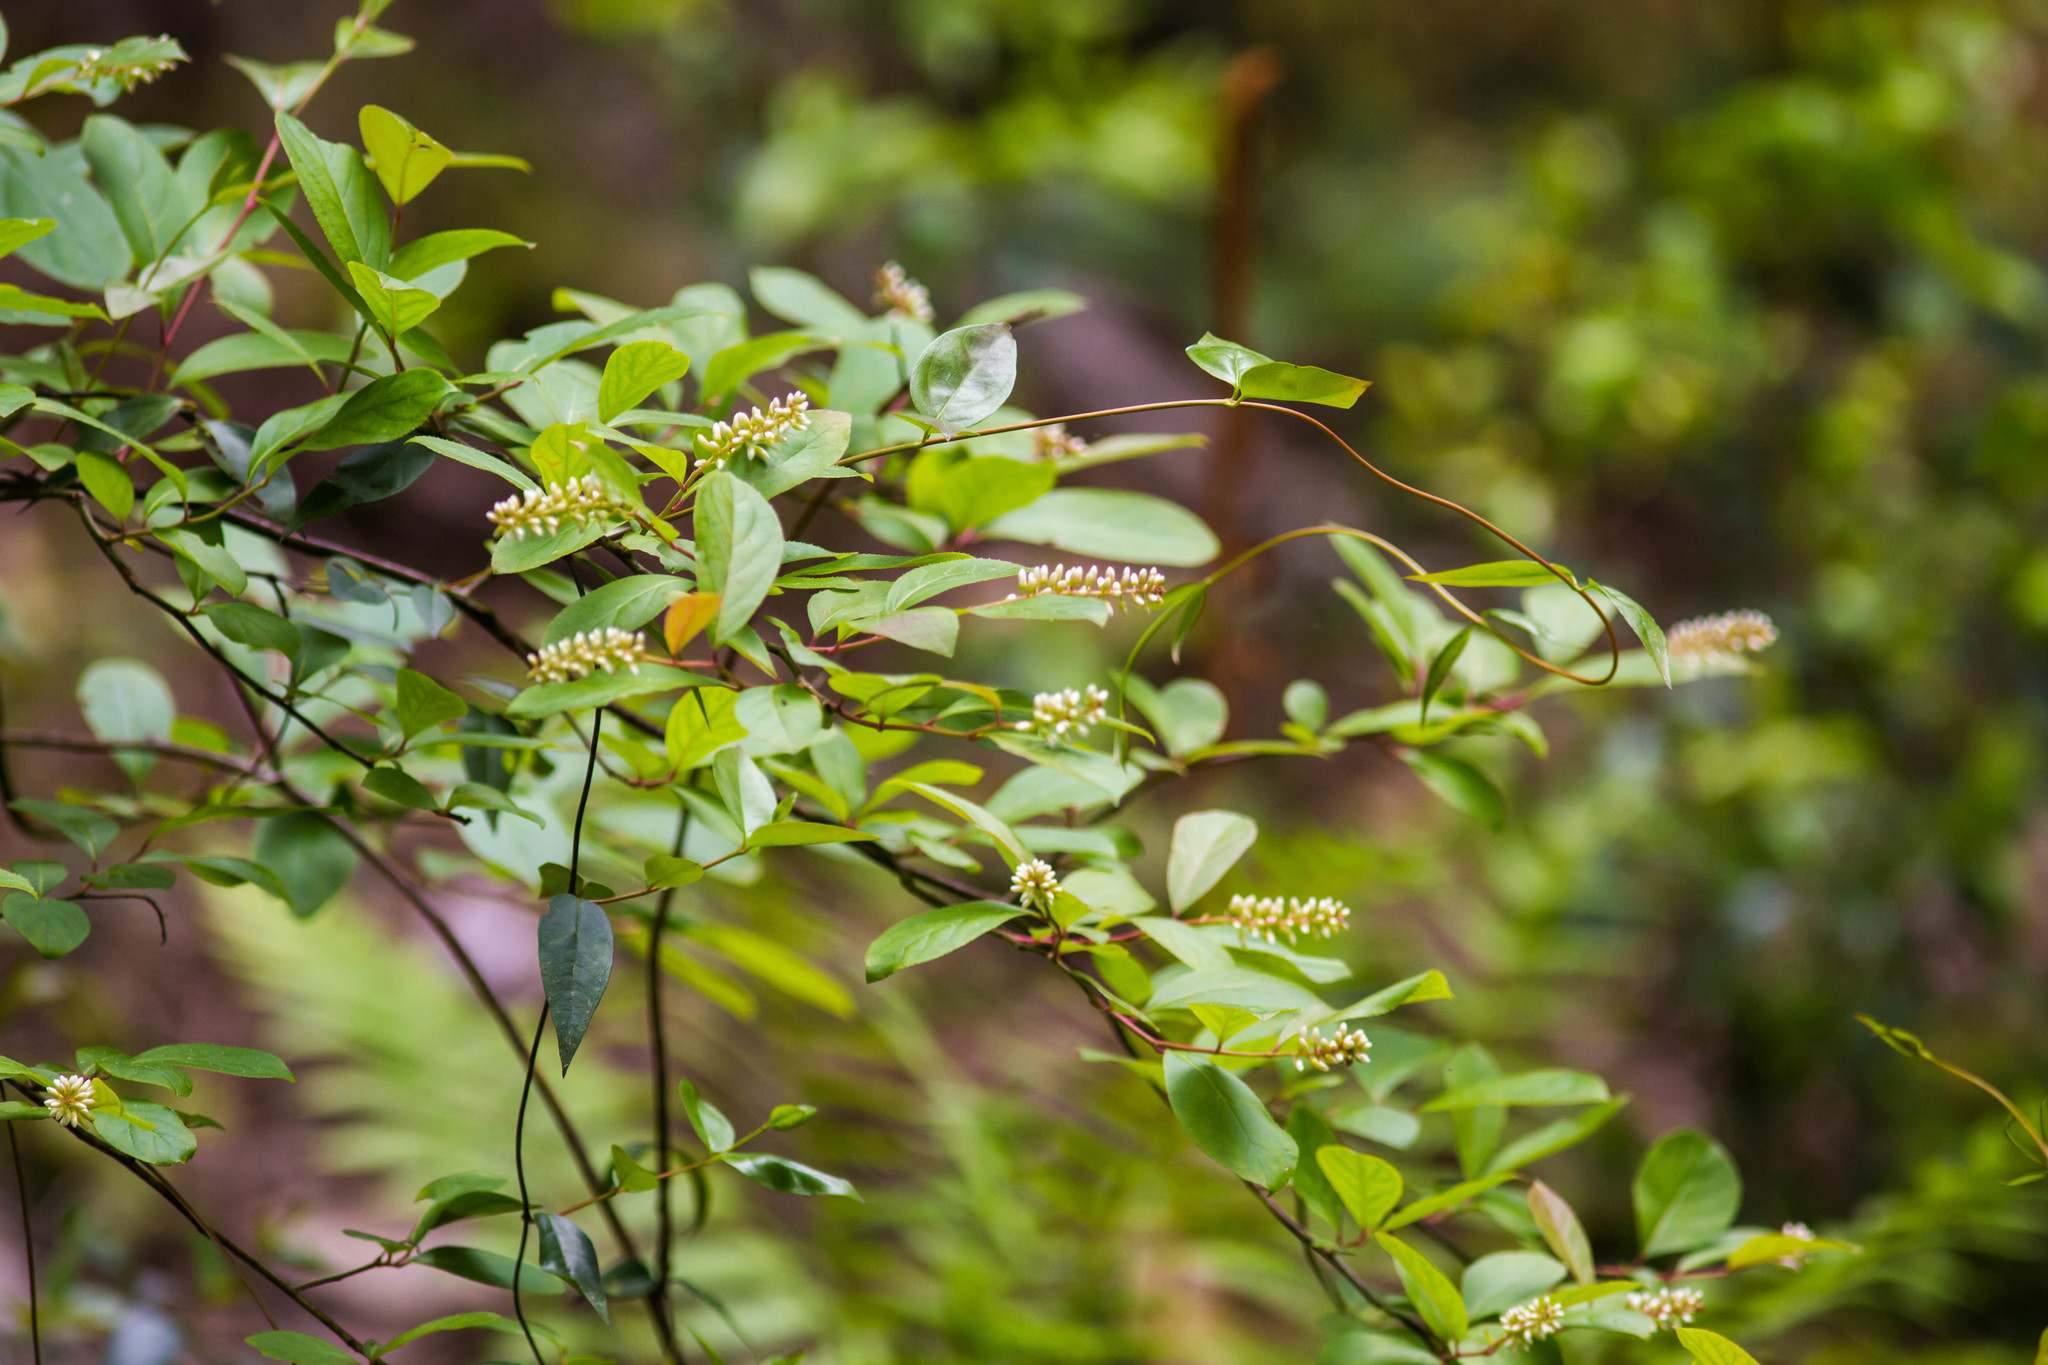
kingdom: Plantae
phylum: Tracheophyta
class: Magnoliopsida
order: Saxifragales
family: Iteaceae
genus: Itea
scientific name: Itea virginica
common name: Sweetspire
